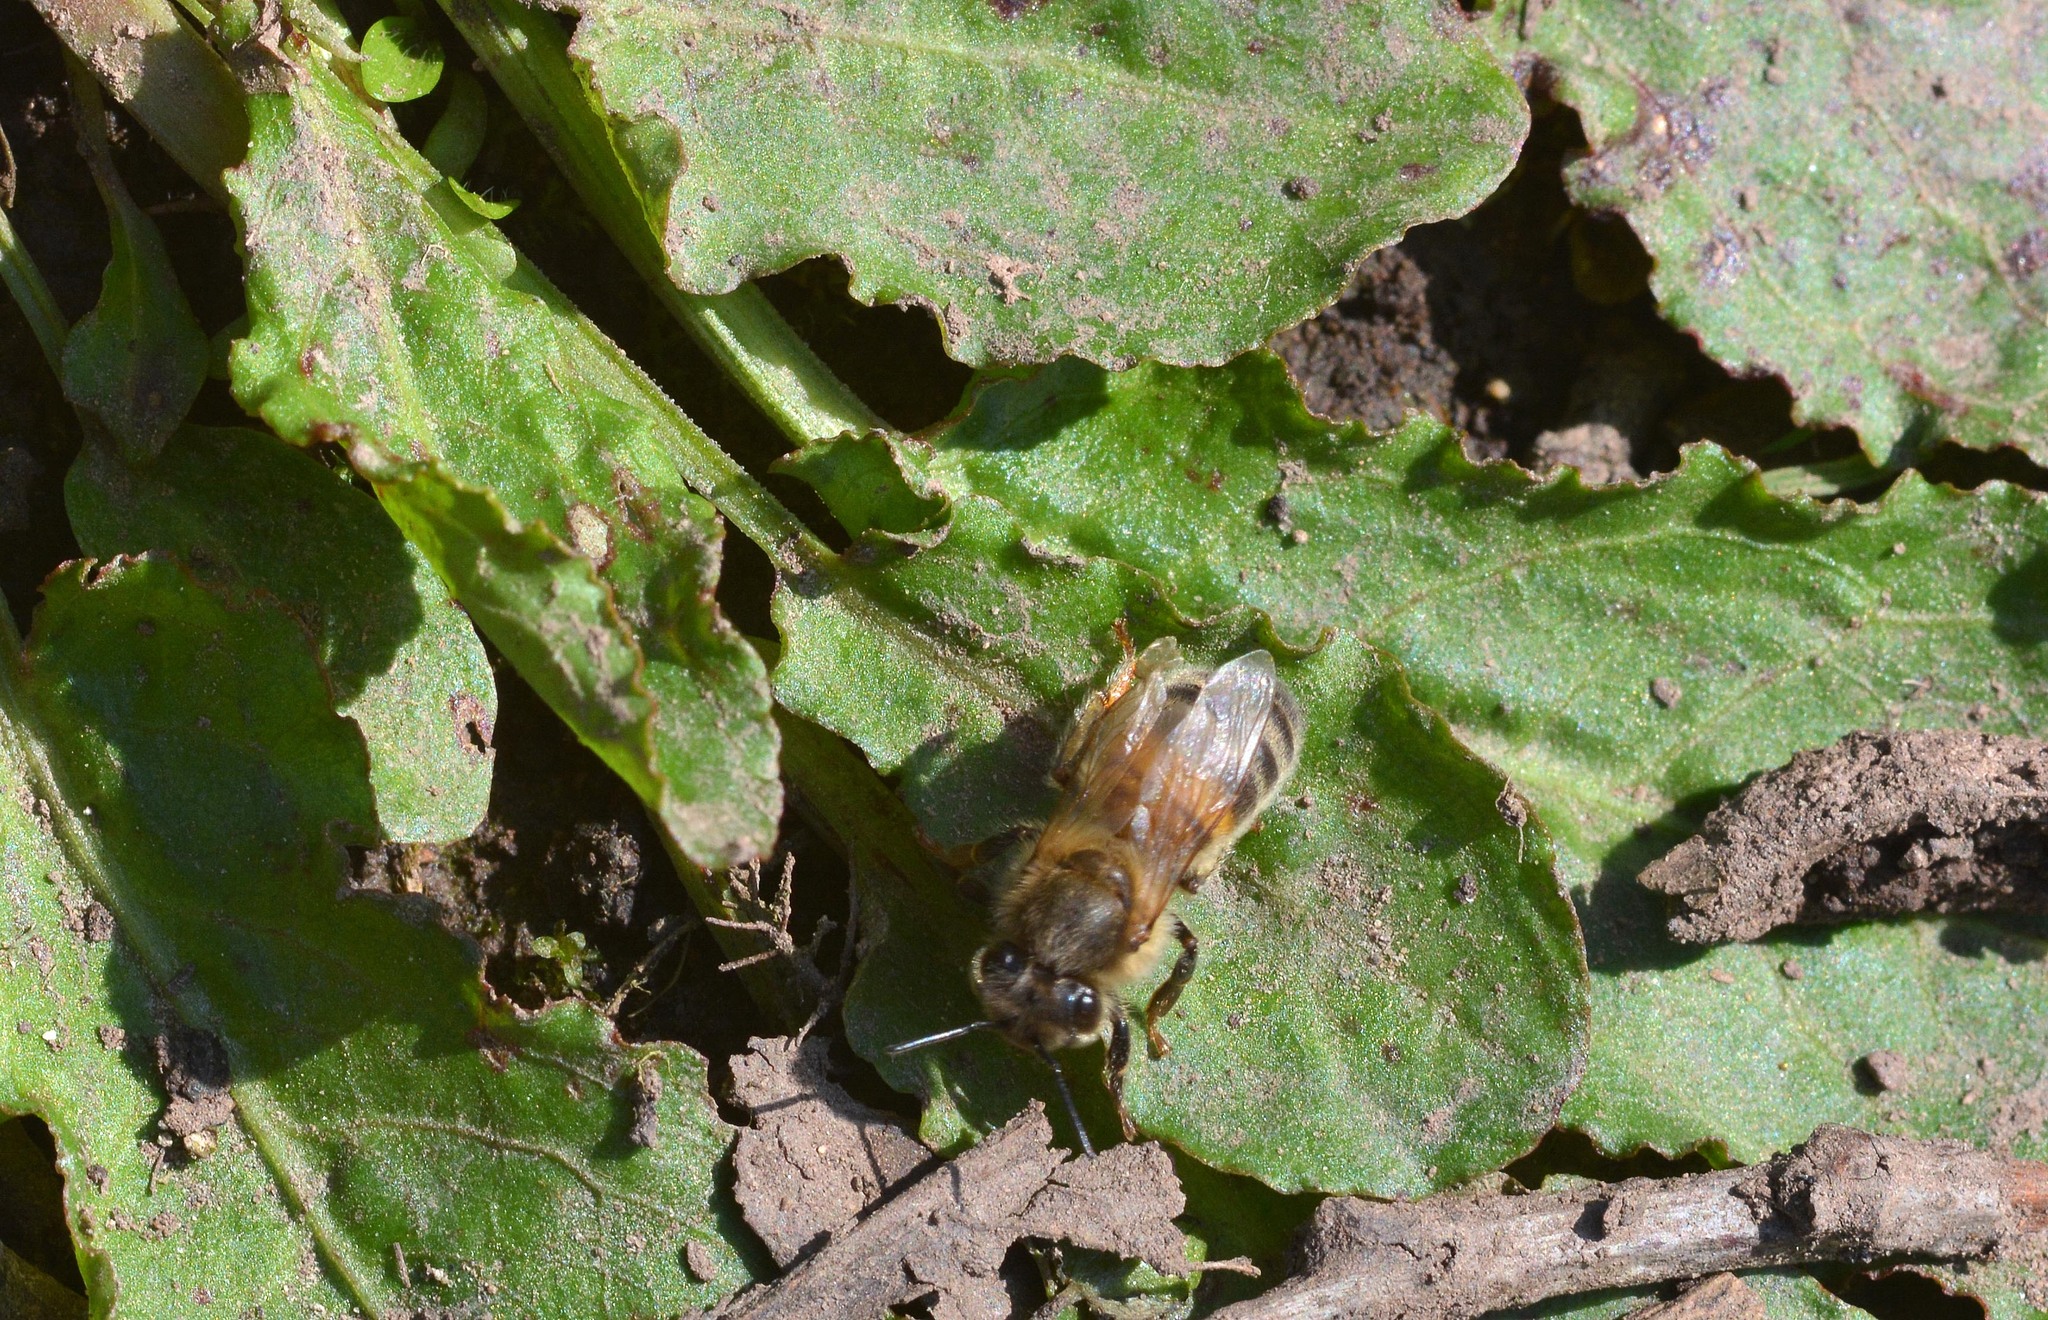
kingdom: Animalia
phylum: Arthropoda
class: Insecta
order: Hymenoptera
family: Apidae
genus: Apis
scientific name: Apis mellifera
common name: Honey bee
